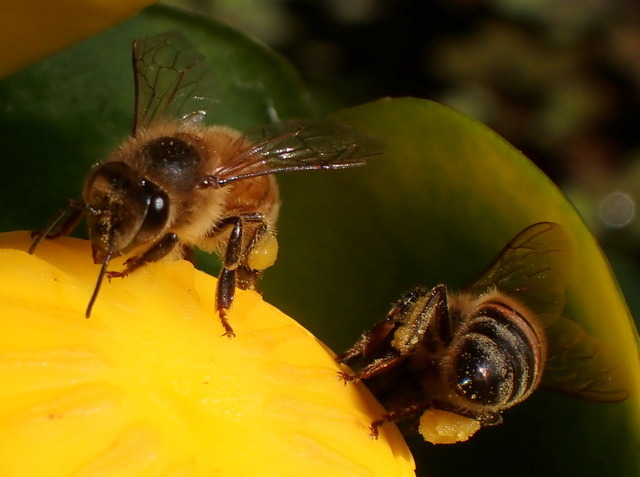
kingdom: Animalia
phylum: Arthropoda
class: Insecta
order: Hymenoptera
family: Apidae
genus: Apis
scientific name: Apis mellifera
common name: Honey bee
